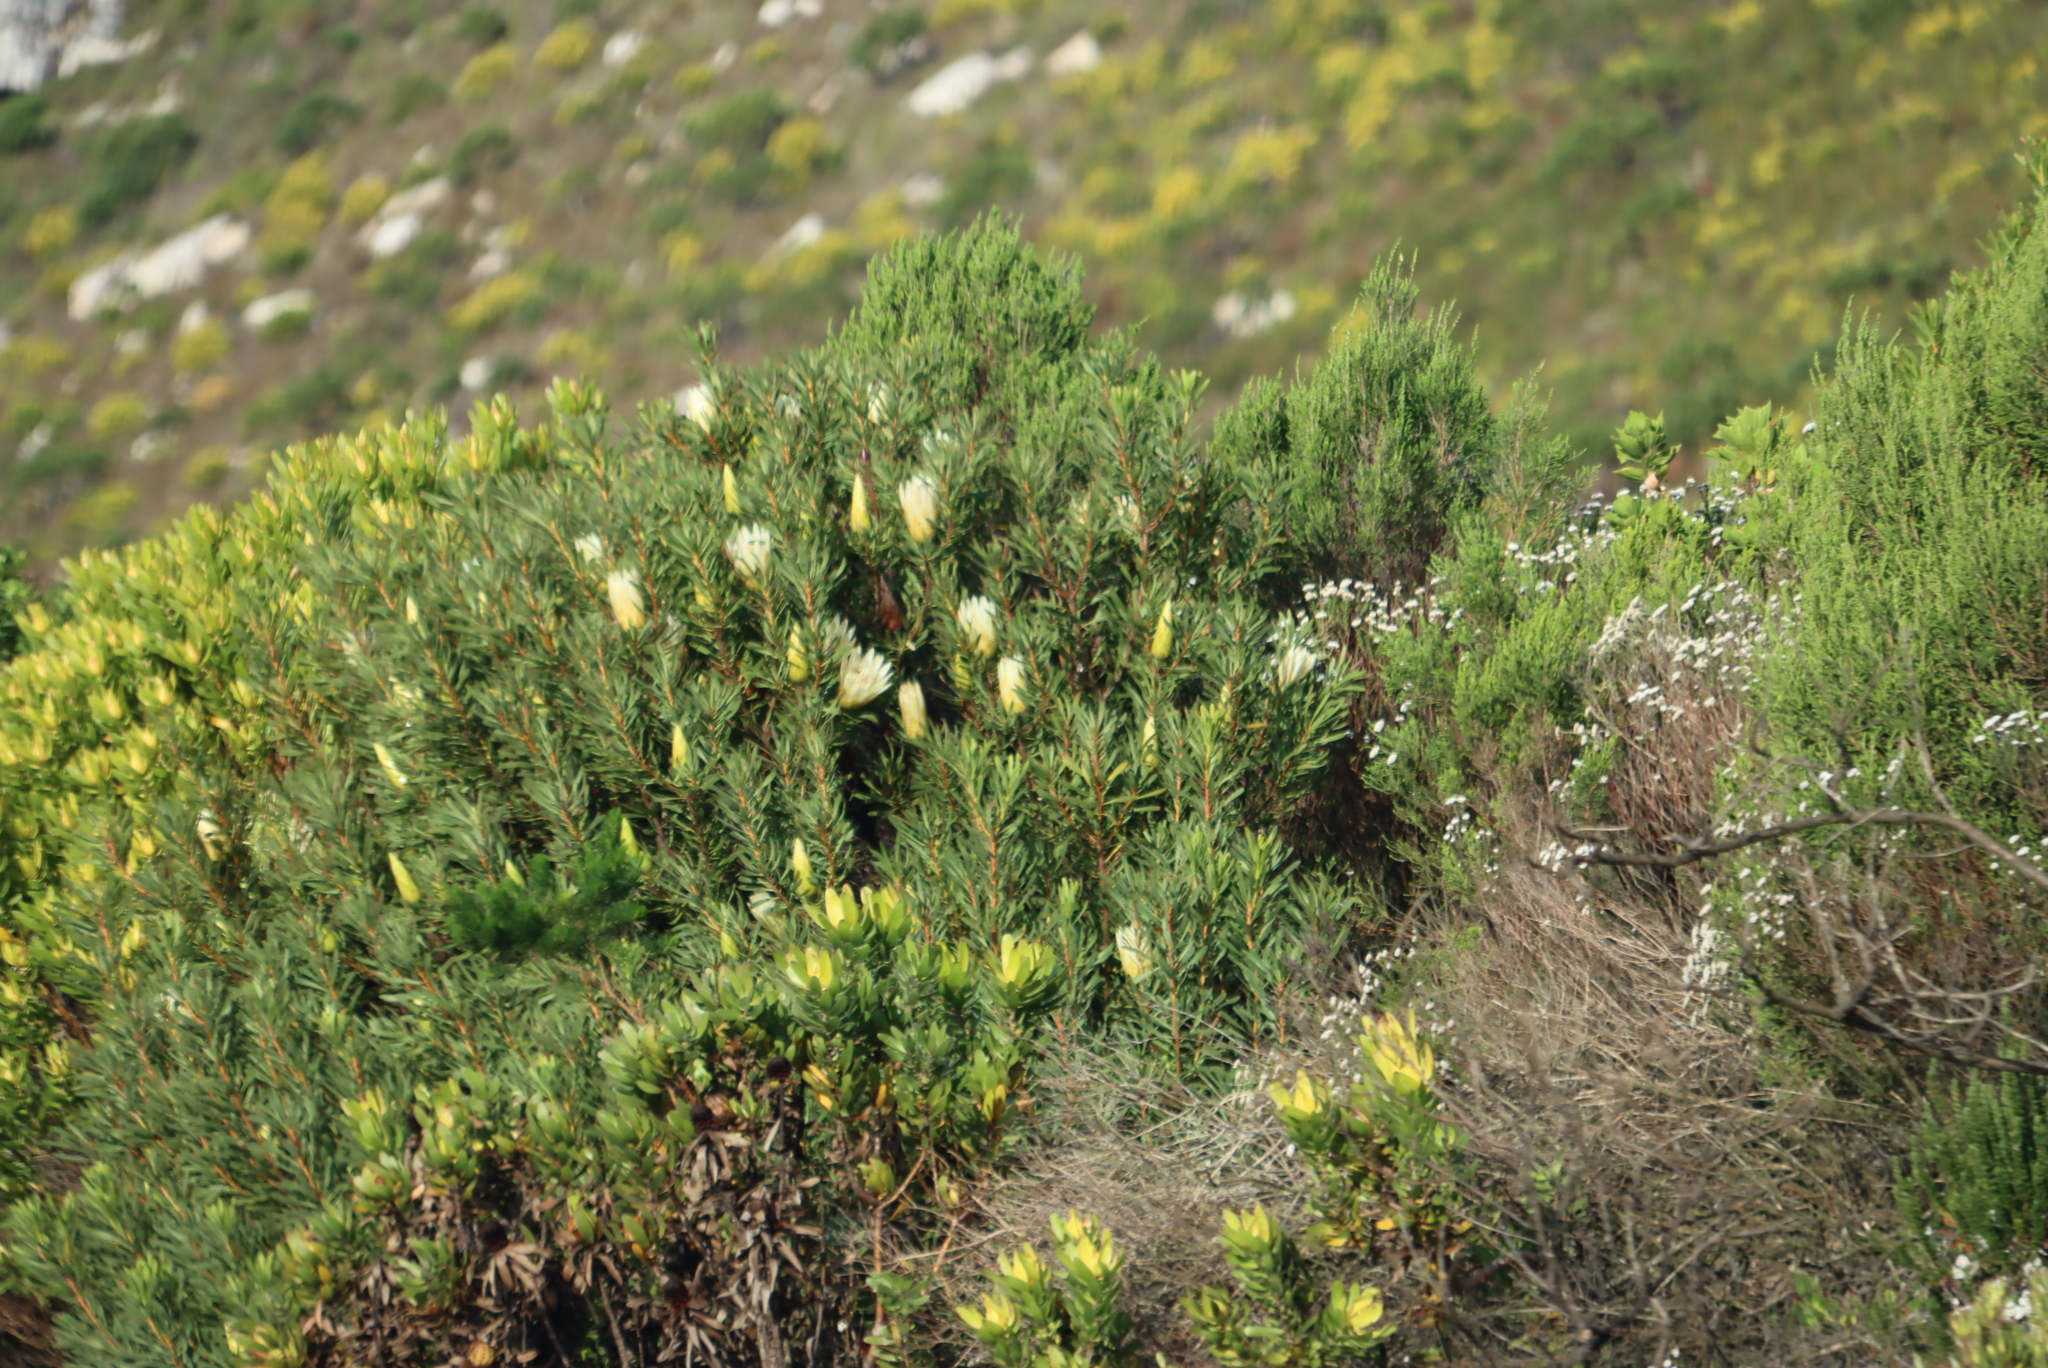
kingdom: Plantae
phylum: Tracheophyta
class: Magnoliopsida
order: Proteales
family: Proteaceae
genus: Protea
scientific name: Protea repens
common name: Sugarbush
